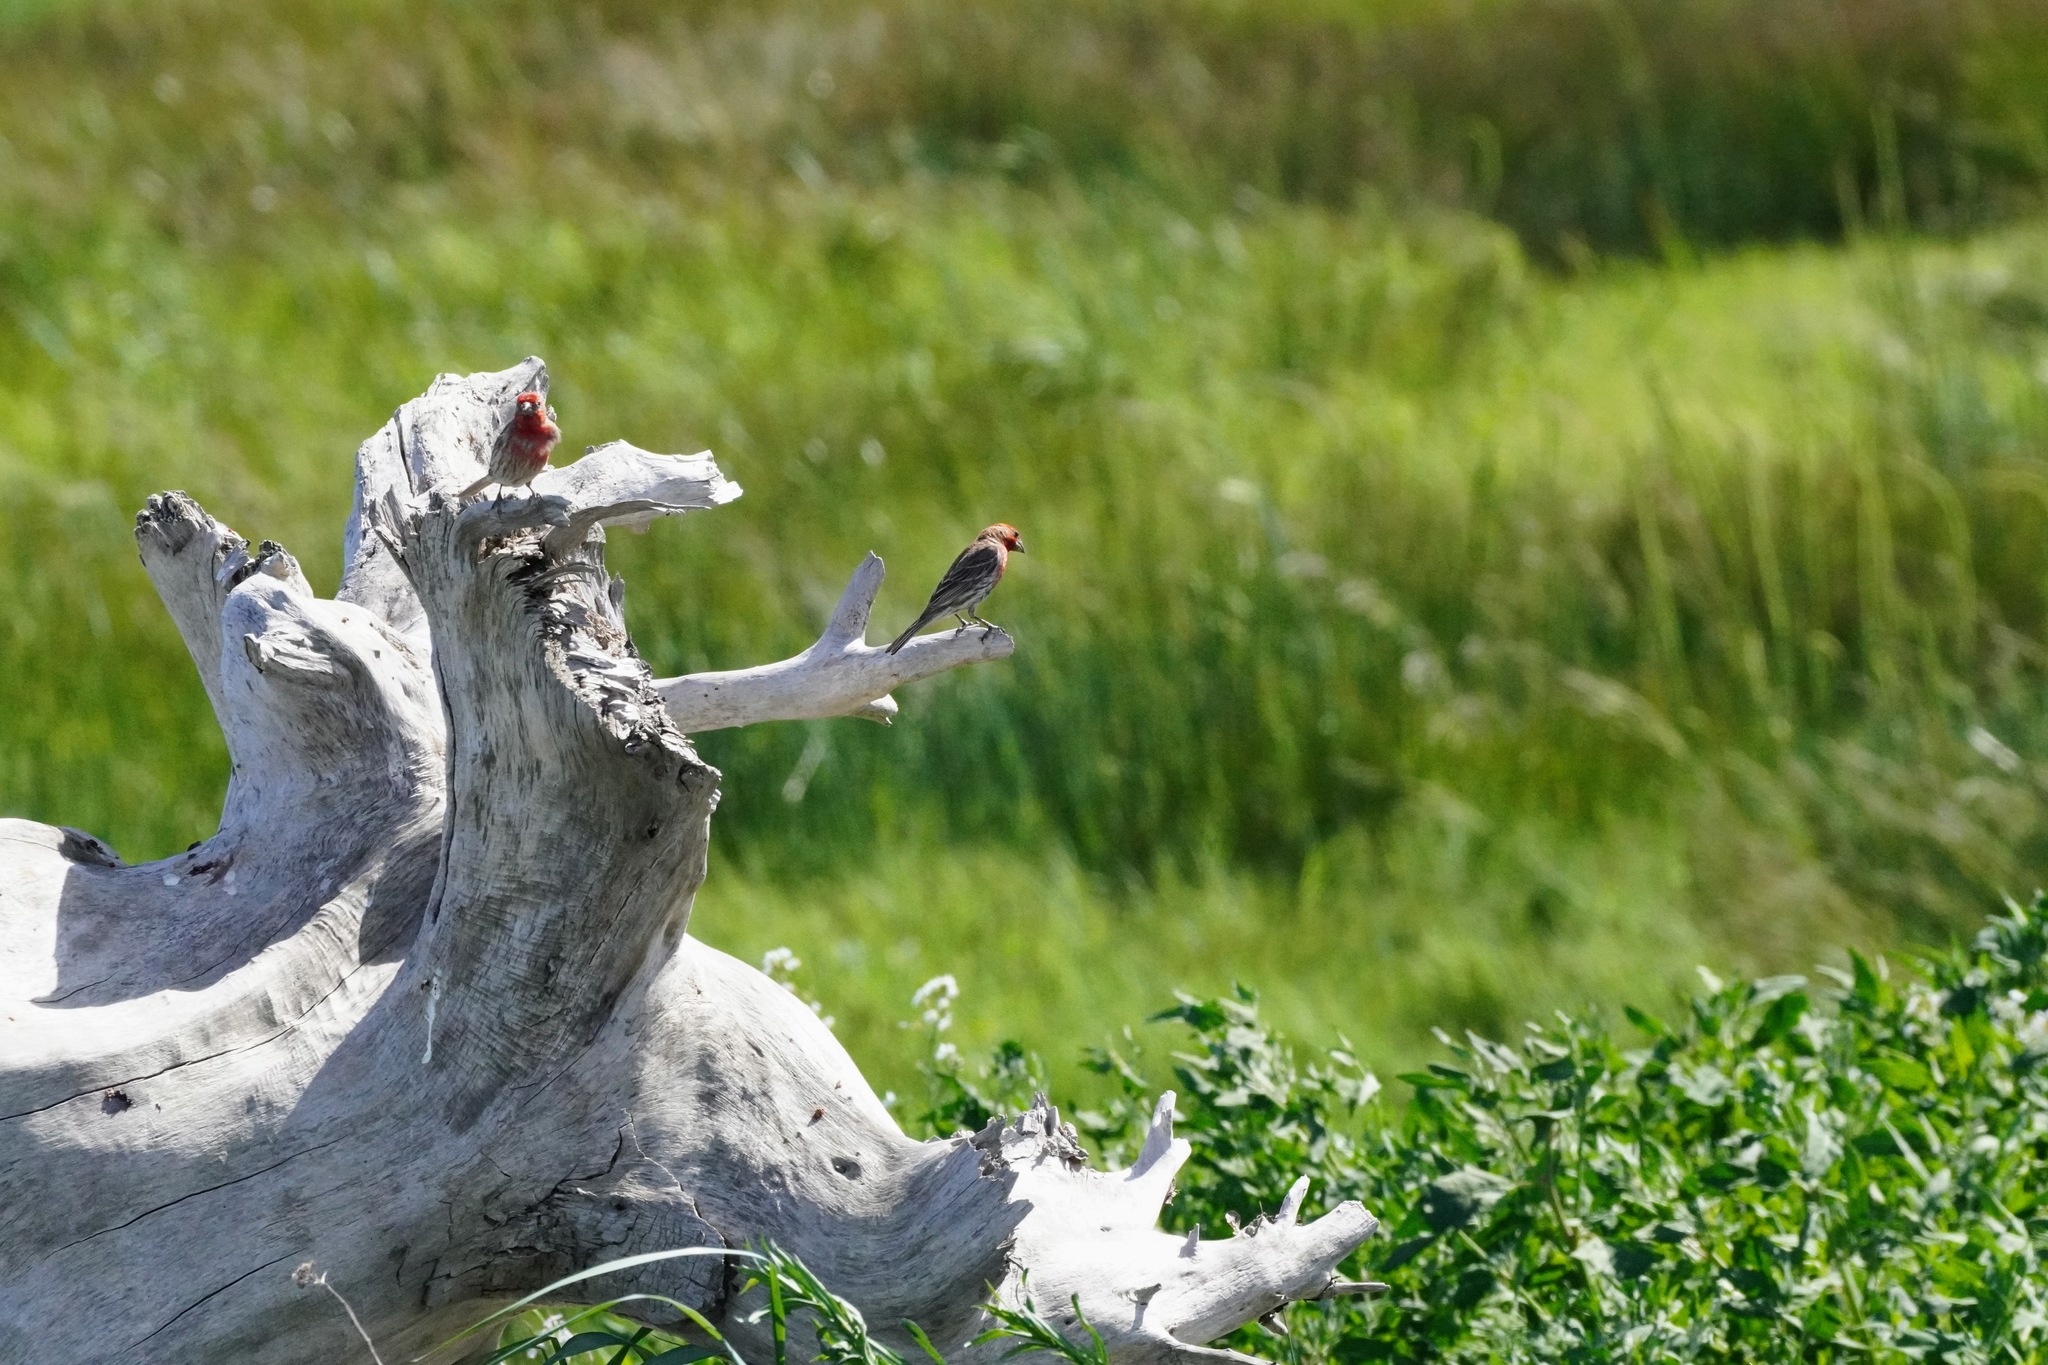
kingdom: Animalia
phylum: Chordata
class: Aves
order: Passeriformes
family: Fringillidae
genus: Haemorhous
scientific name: Haemorhous mexicanus
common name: House finch
